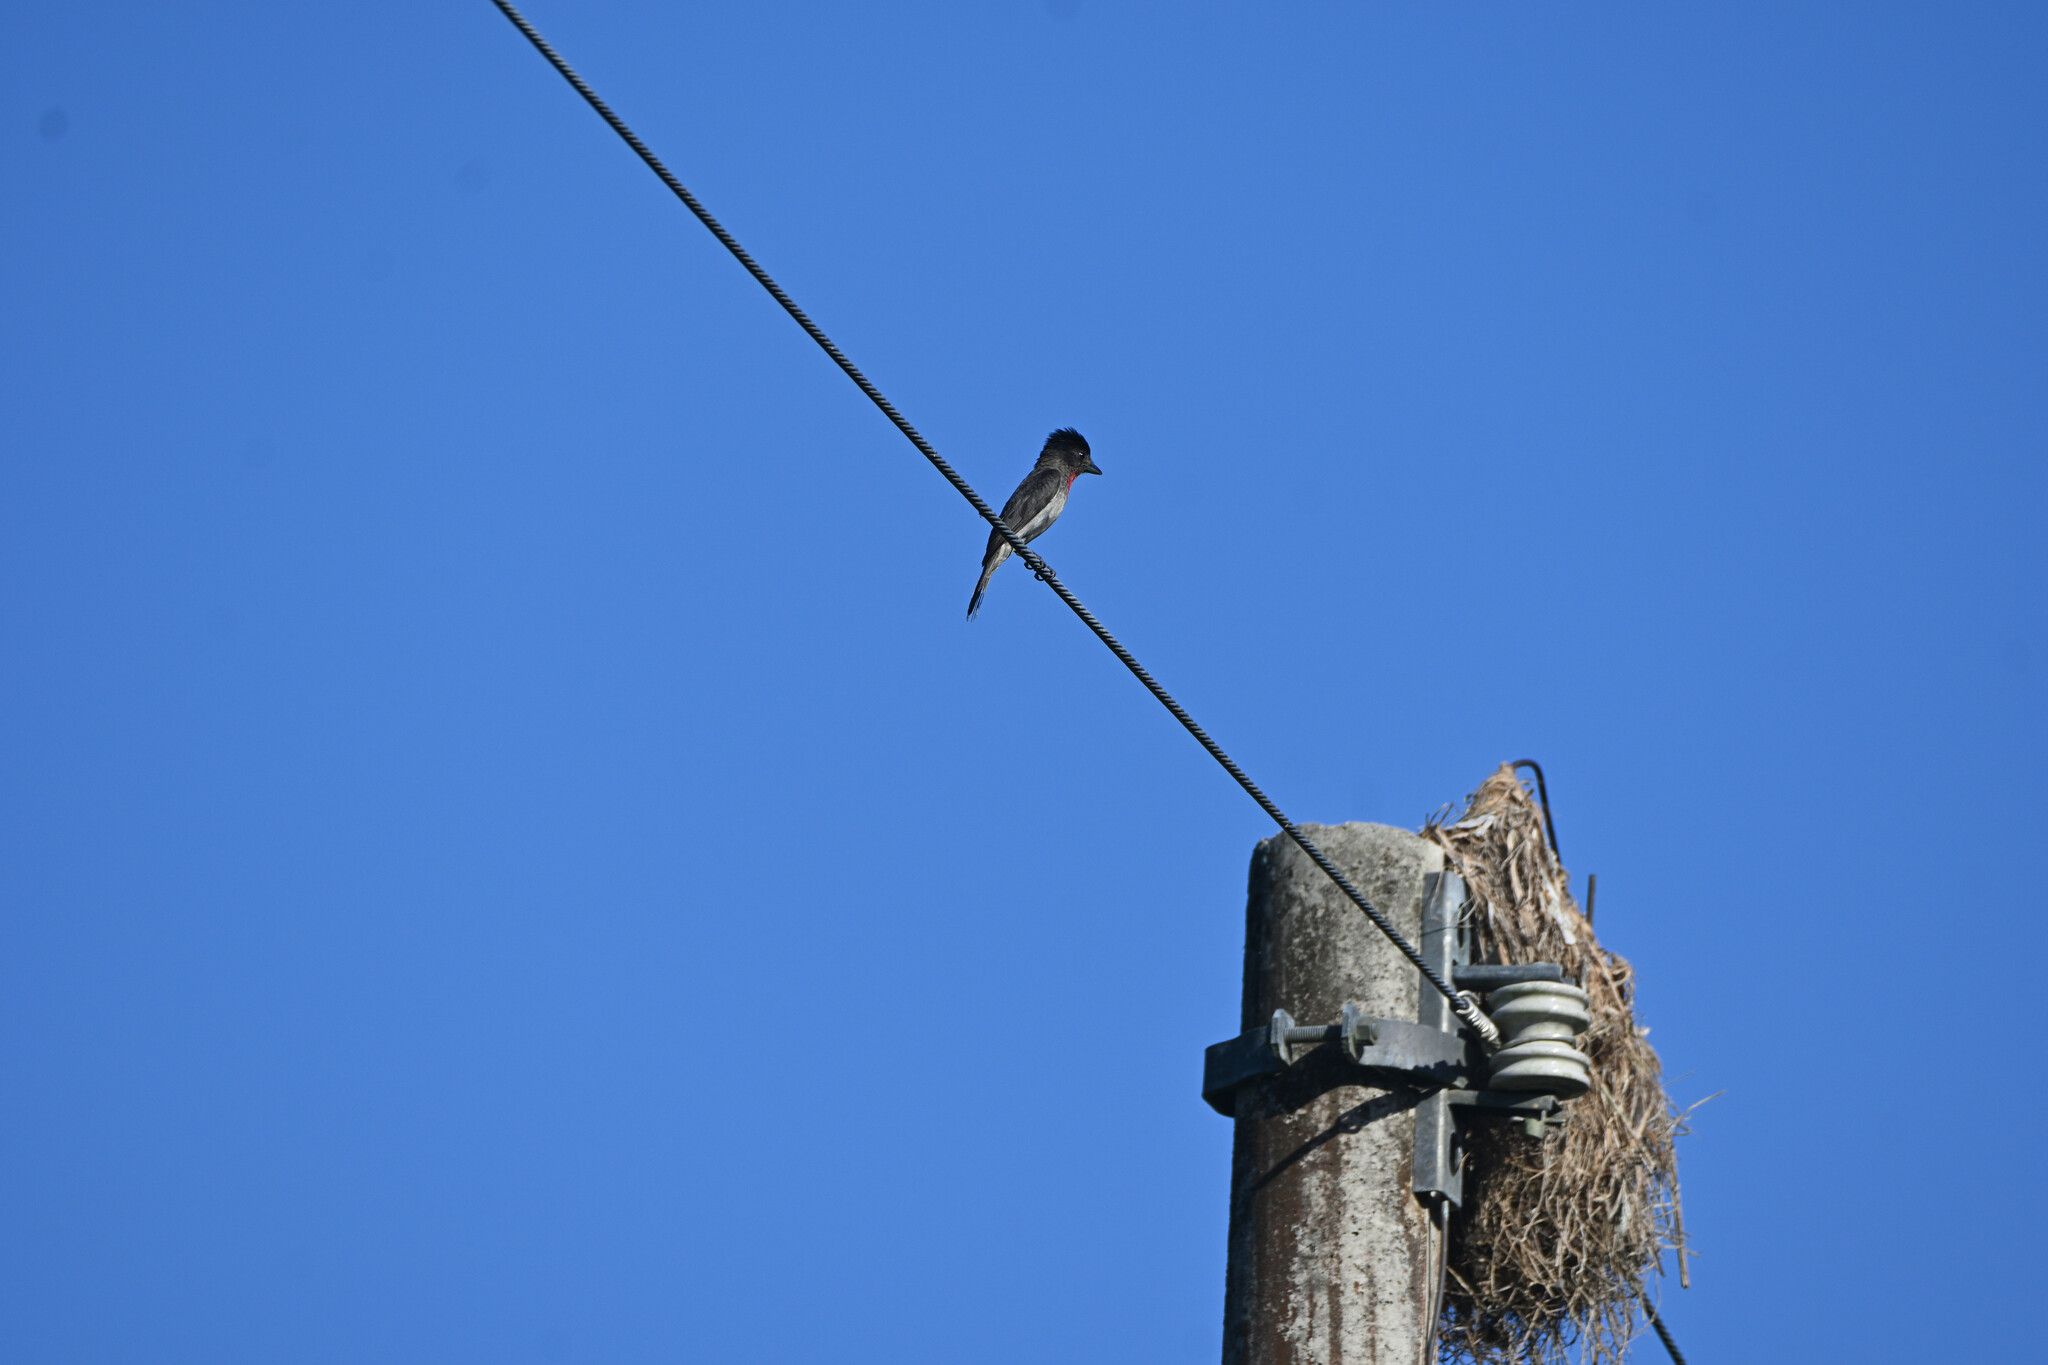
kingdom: Animalia
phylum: Chordata
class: Aves
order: Passeriformes
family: Cotingidae
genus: Pachyramphus
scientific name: Pachyramphus aglaiae
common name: Rose-throated becard
